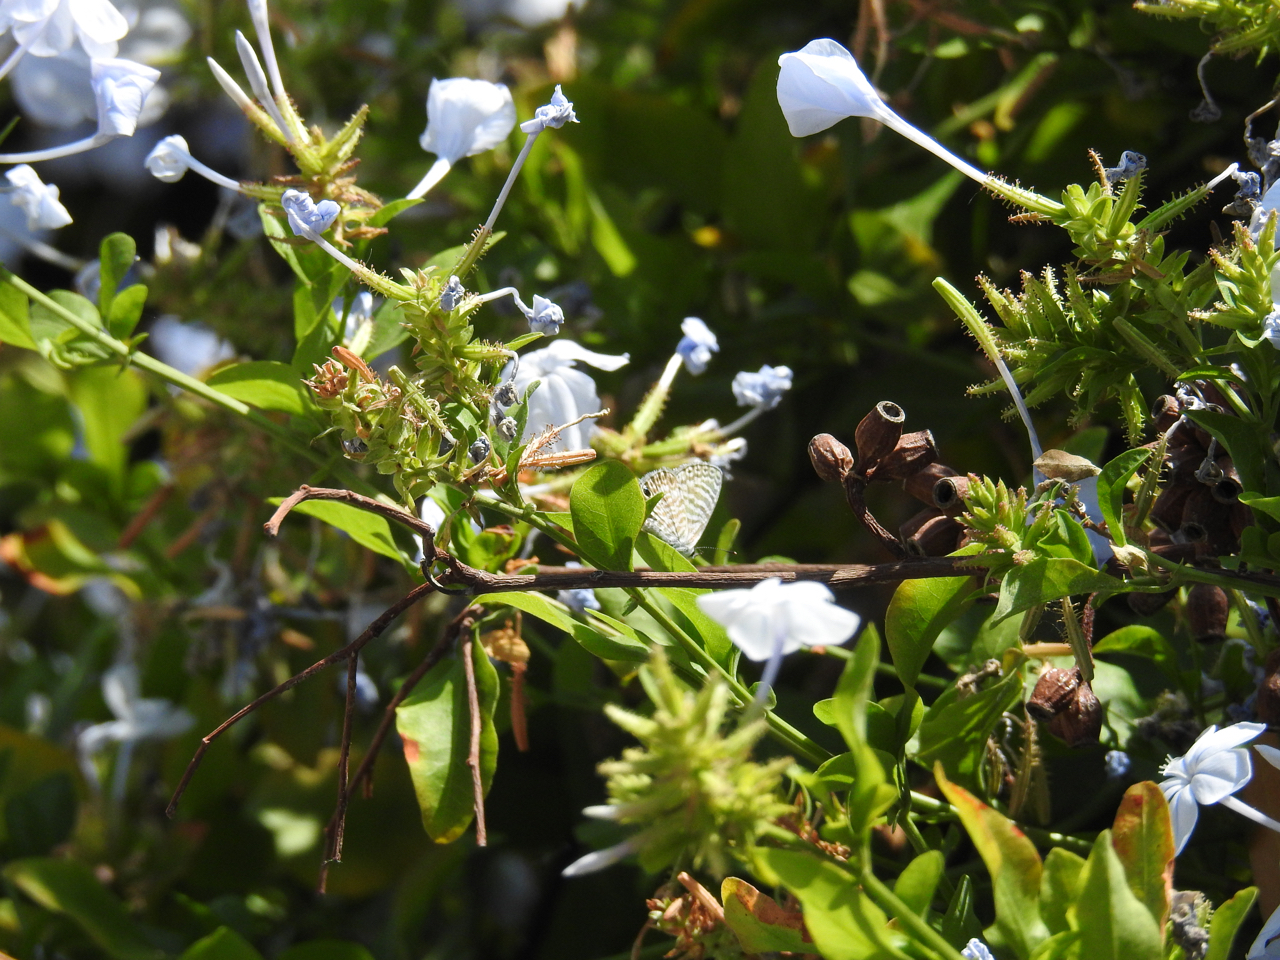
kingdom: Animalia
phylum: Arthropoda
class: Insecta
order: Lepidoptera
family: Lycaenidae
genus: Leptotes
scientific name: Leptotes marina
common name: Marine blue
